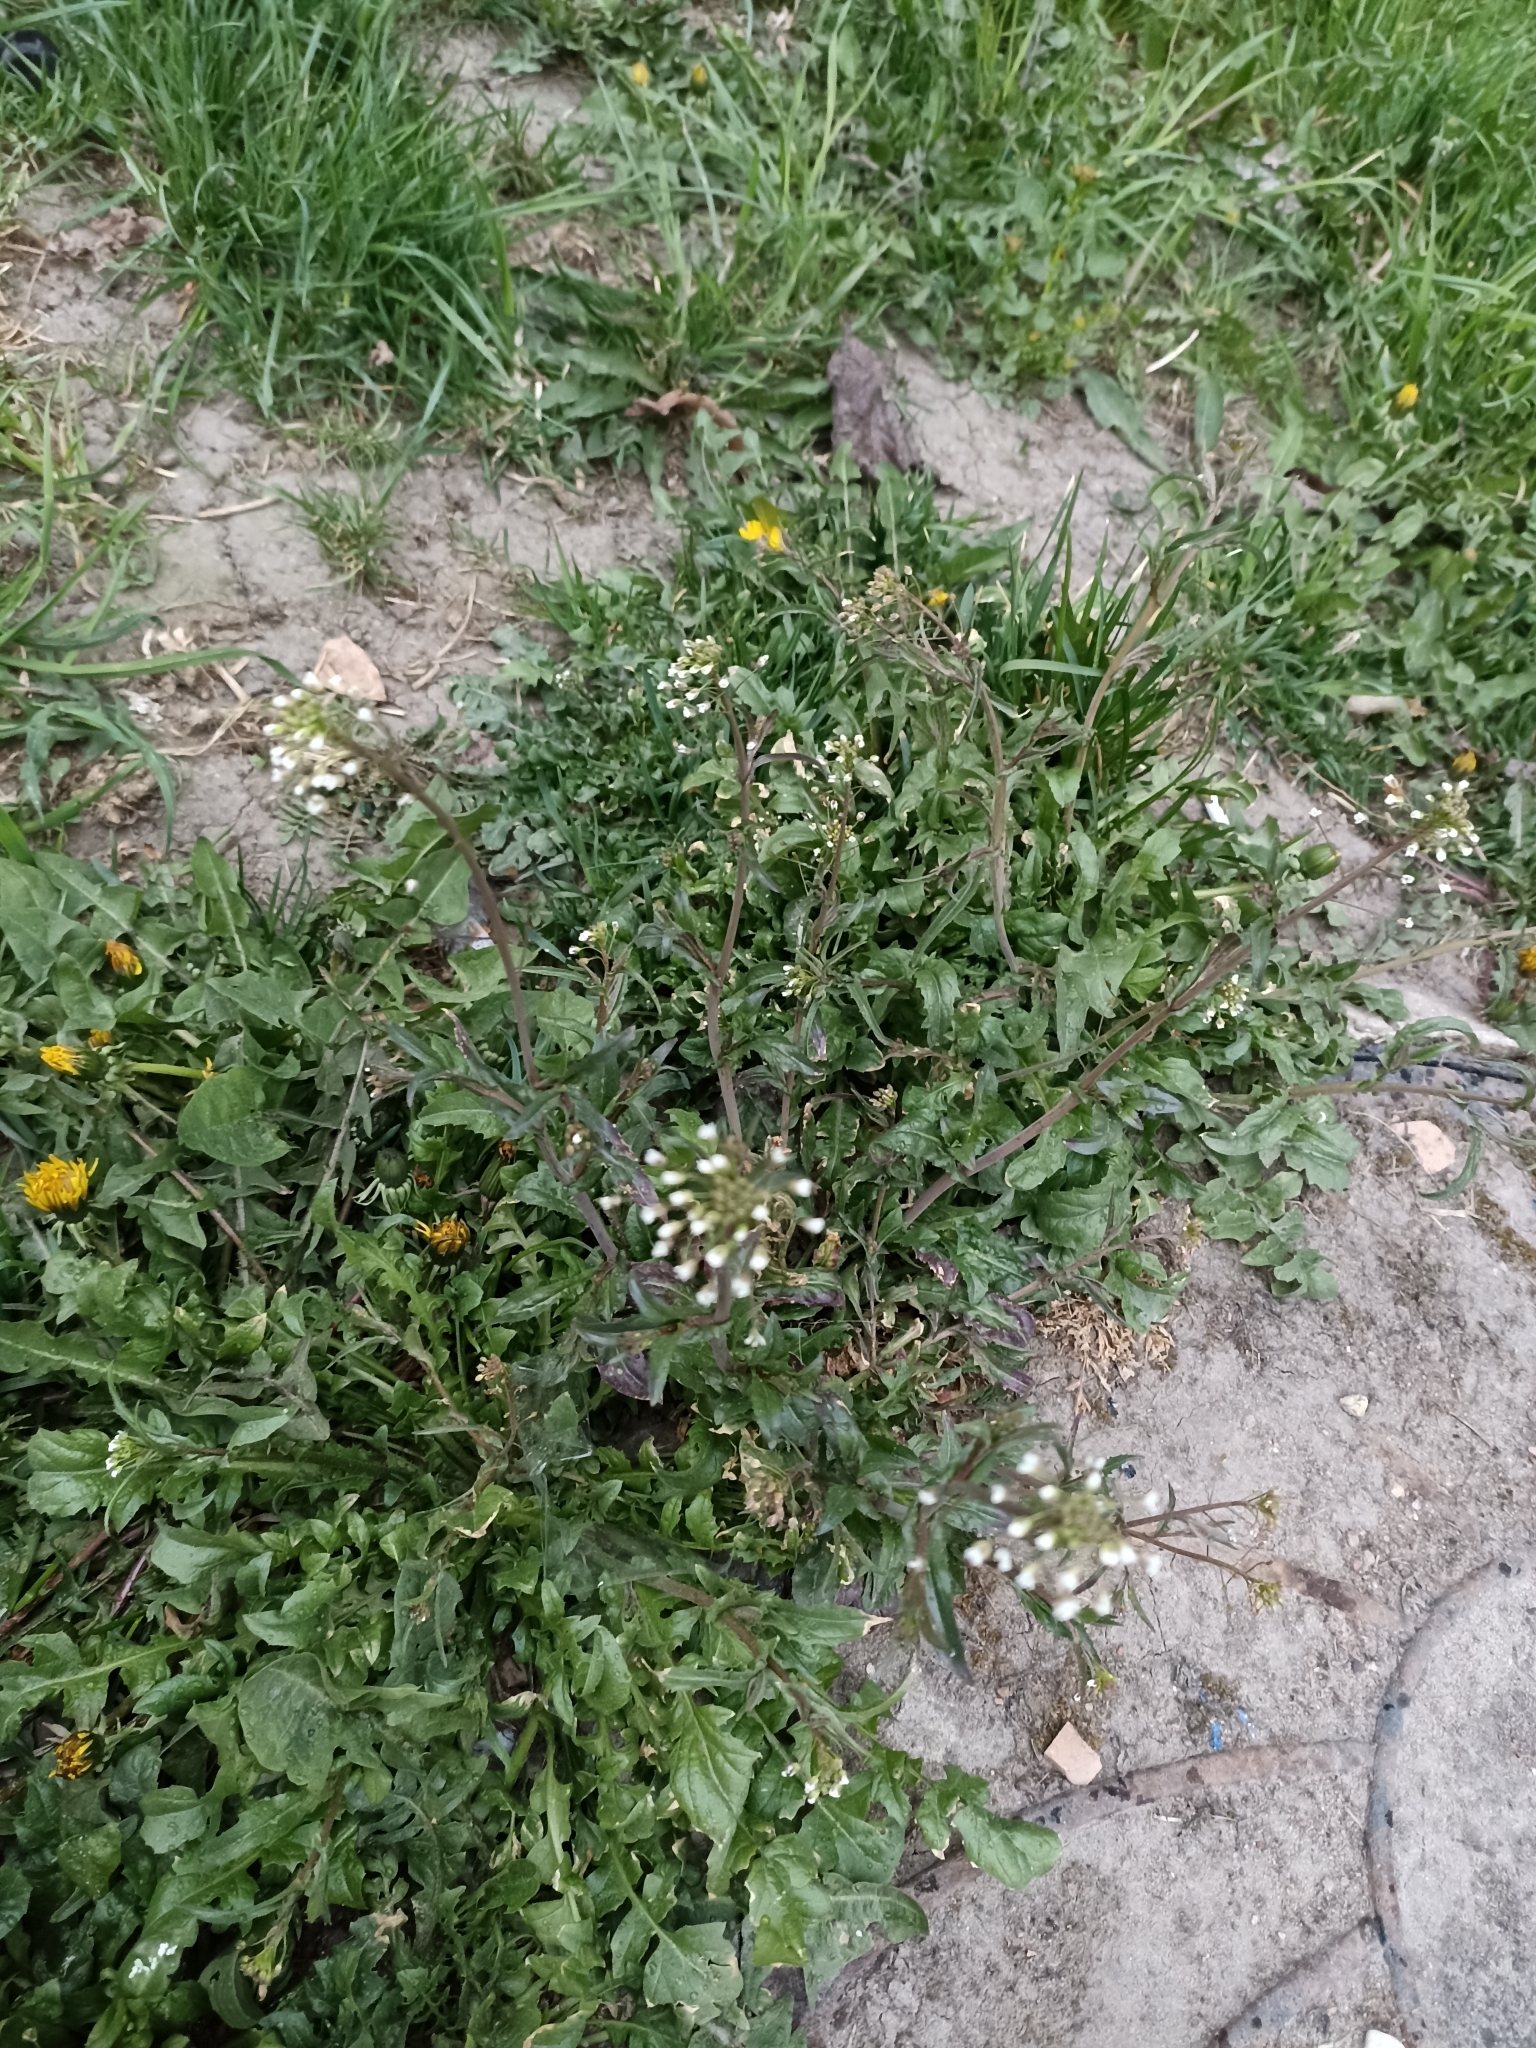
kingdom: Plantae
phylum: Tracheophyta
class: Magnoliopsida
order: Brassicales
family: Brassicaceae
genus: Capsella
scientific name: Capsella bursa-pastoris
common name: Shepherd's purse
